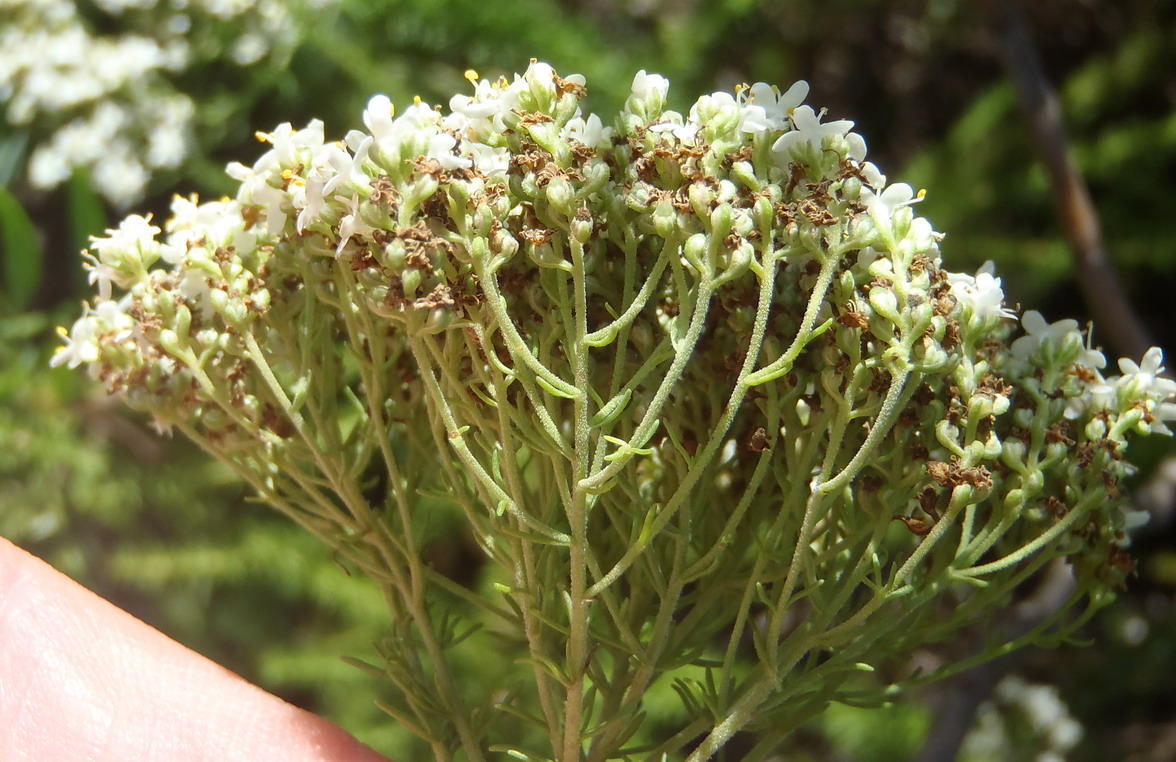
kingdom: Plantae
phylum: Tracheophyta
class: Magnoliopsida
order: Lamiales
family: Scrophulariaceae
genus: Selago
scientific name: Selago corymbosa
